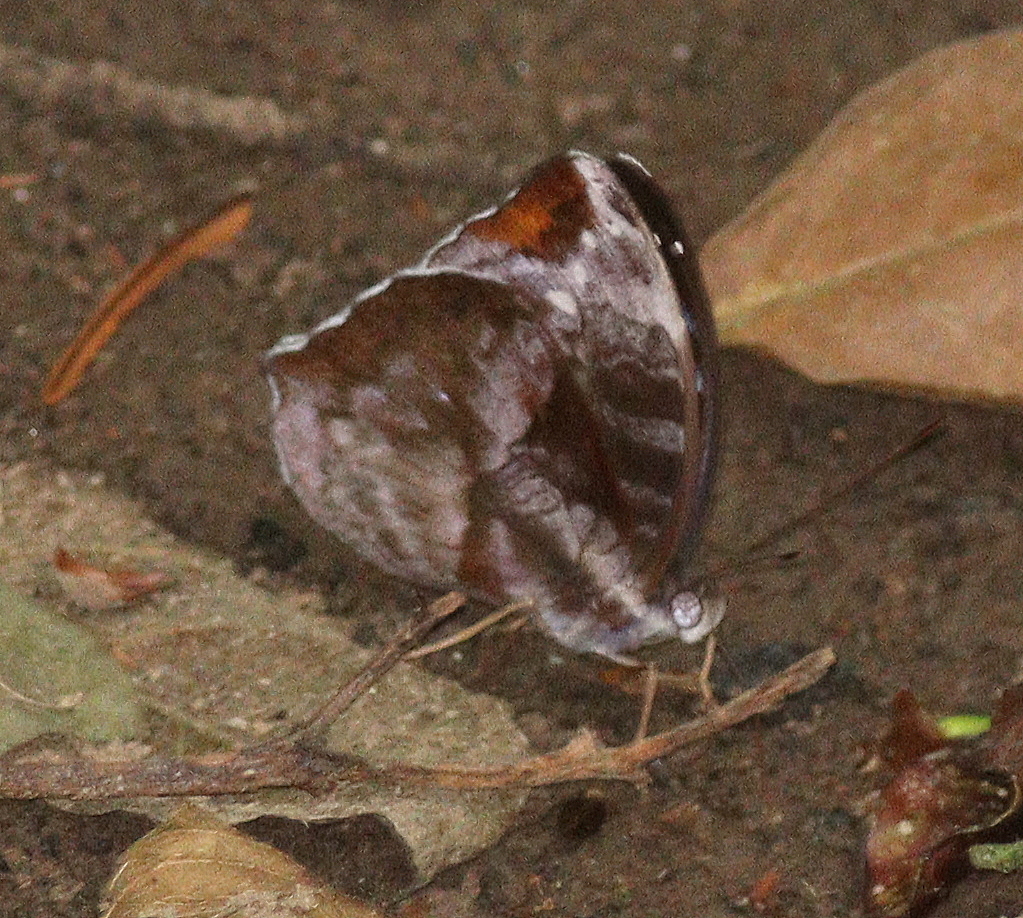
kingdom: Animalia
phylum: Arthropoda
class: Insecta
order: Lepidoptera
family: Nymphalidae
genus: Cynandra
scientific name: Cynandra opis
